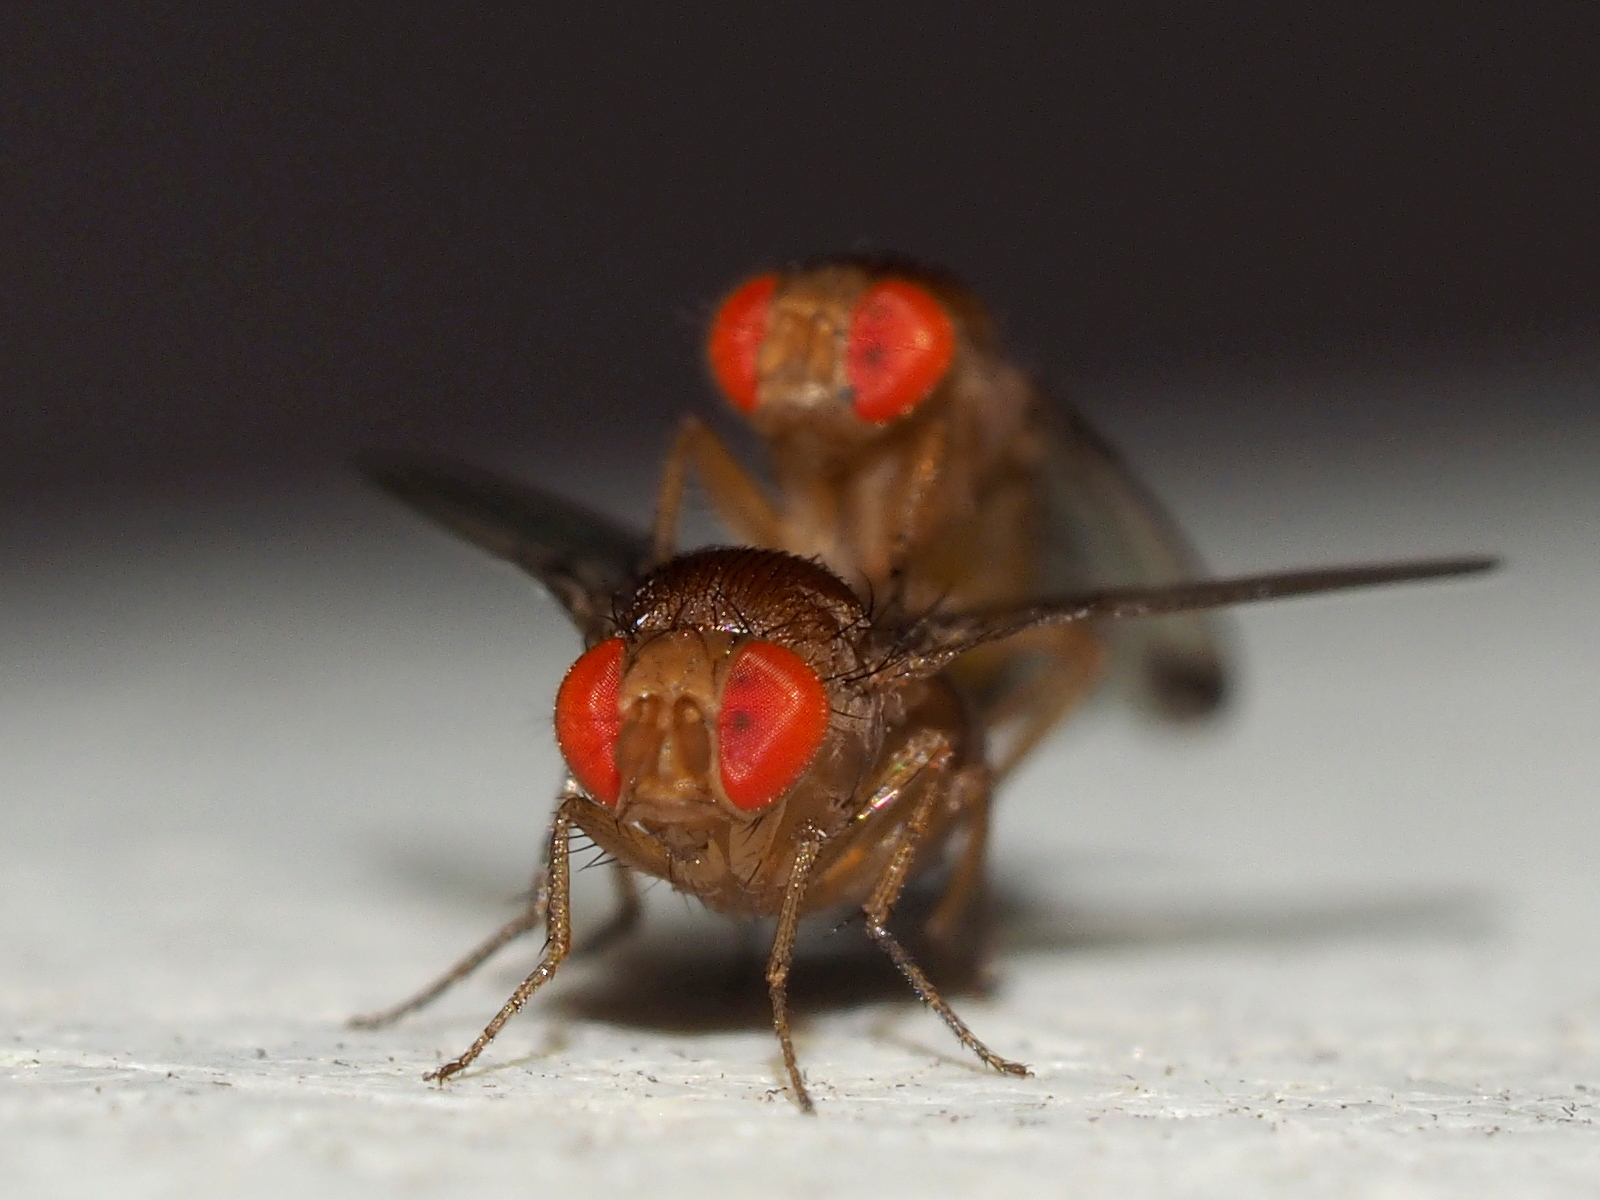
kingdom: Animalia
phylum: Arthropoda
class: Insecta
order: Diptera
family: Drosophilidae
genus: Drosophila
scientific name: Drosophila suzukii
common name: Spotted-wing drosophila
